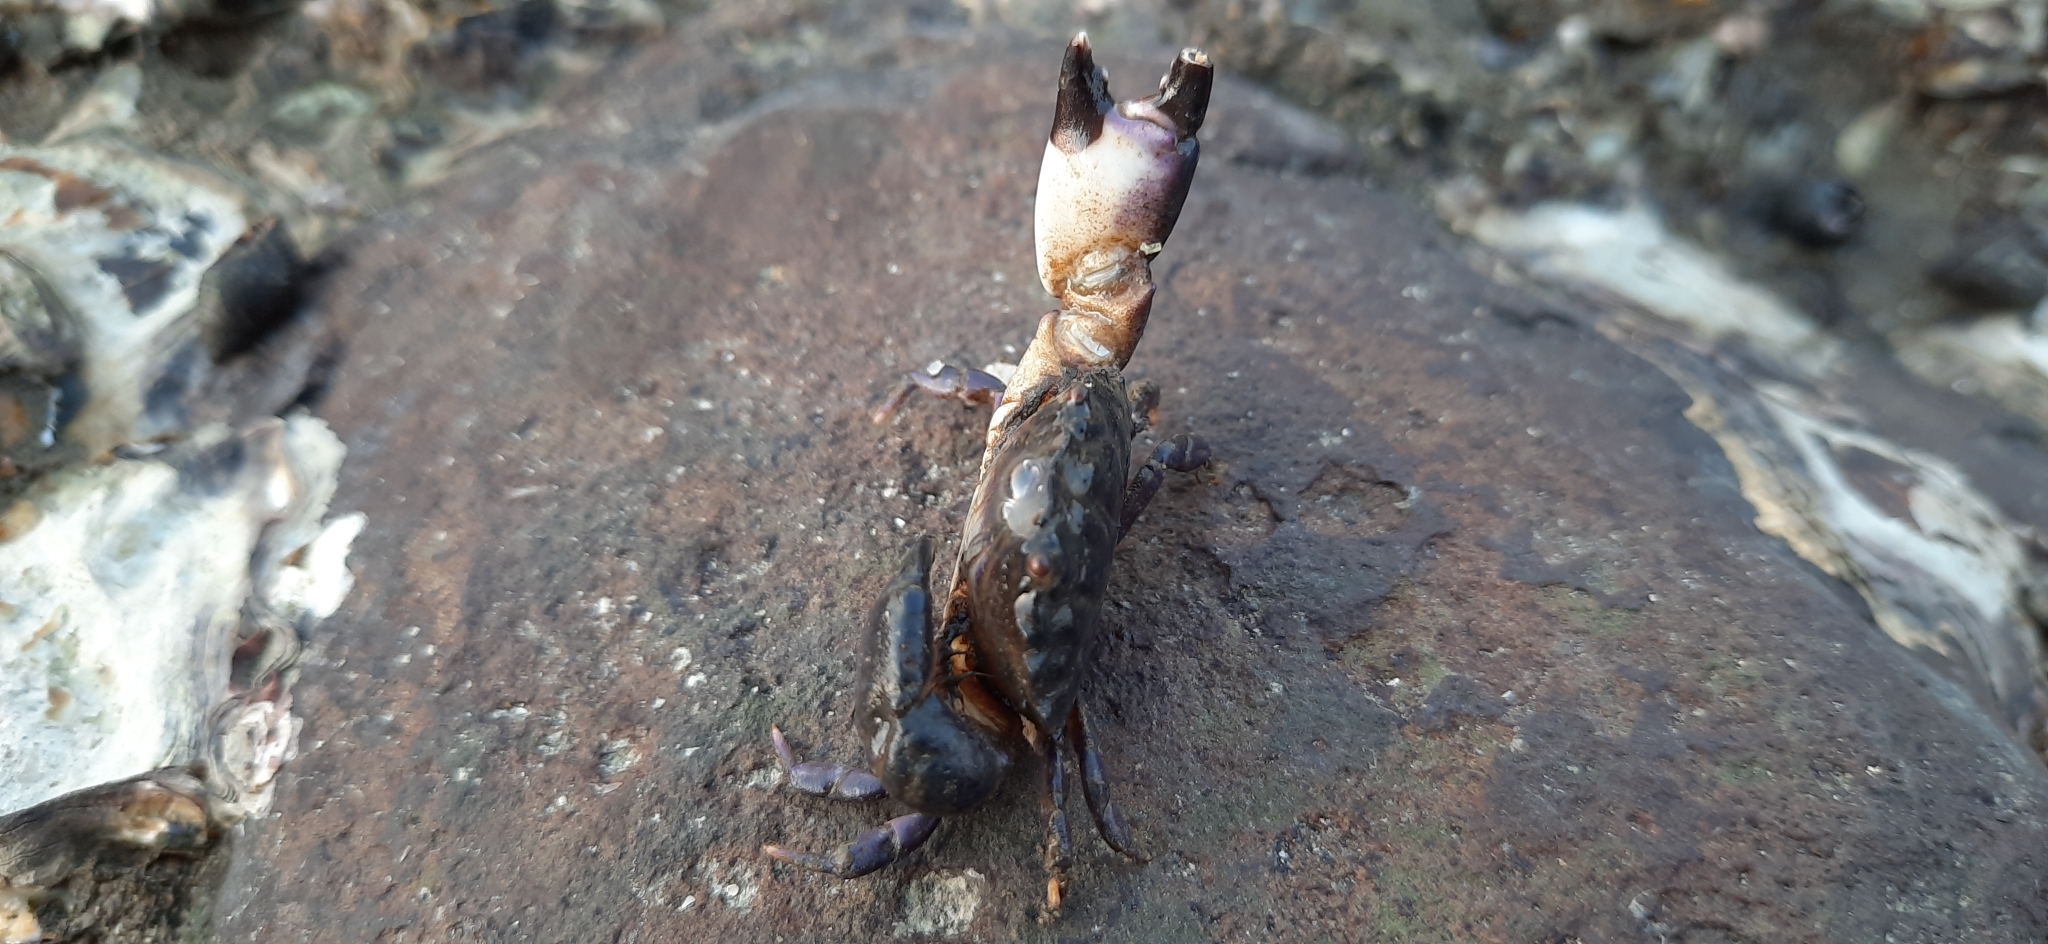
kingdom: Animalia
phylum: Arthropoda
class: Malacostraca
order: Decapoda
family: Menippidae
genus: Myomenippe
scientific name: Myomenippe hardwickii
